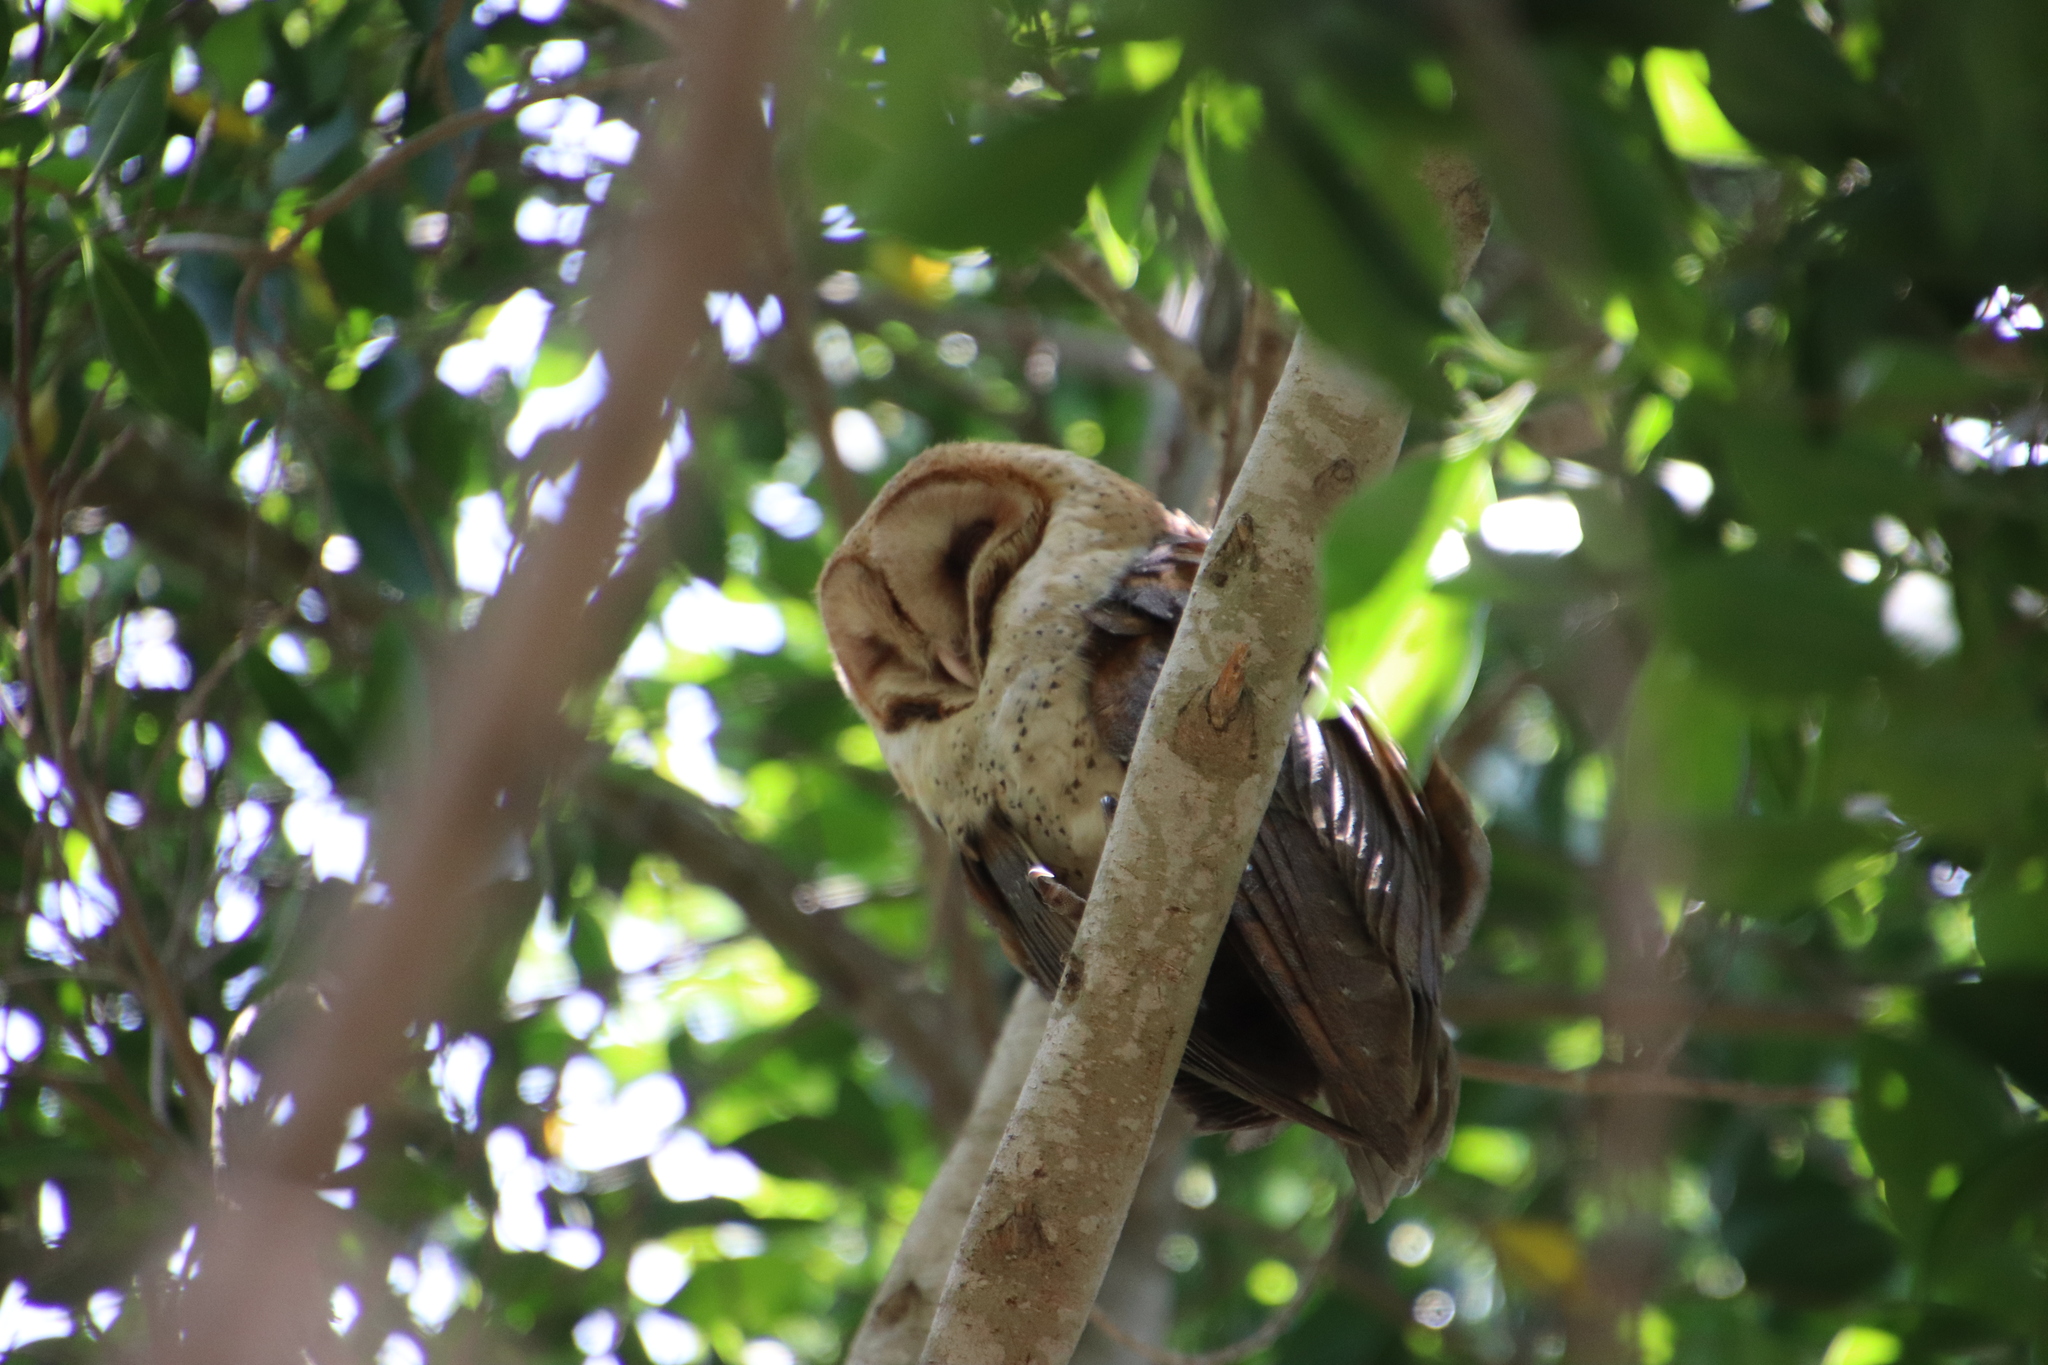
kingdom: Animalia
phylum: Chordata
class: Aves
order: Strigiformes
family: Tytonidae
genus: Tyto
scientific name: Tyto alba
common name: Barn owl
